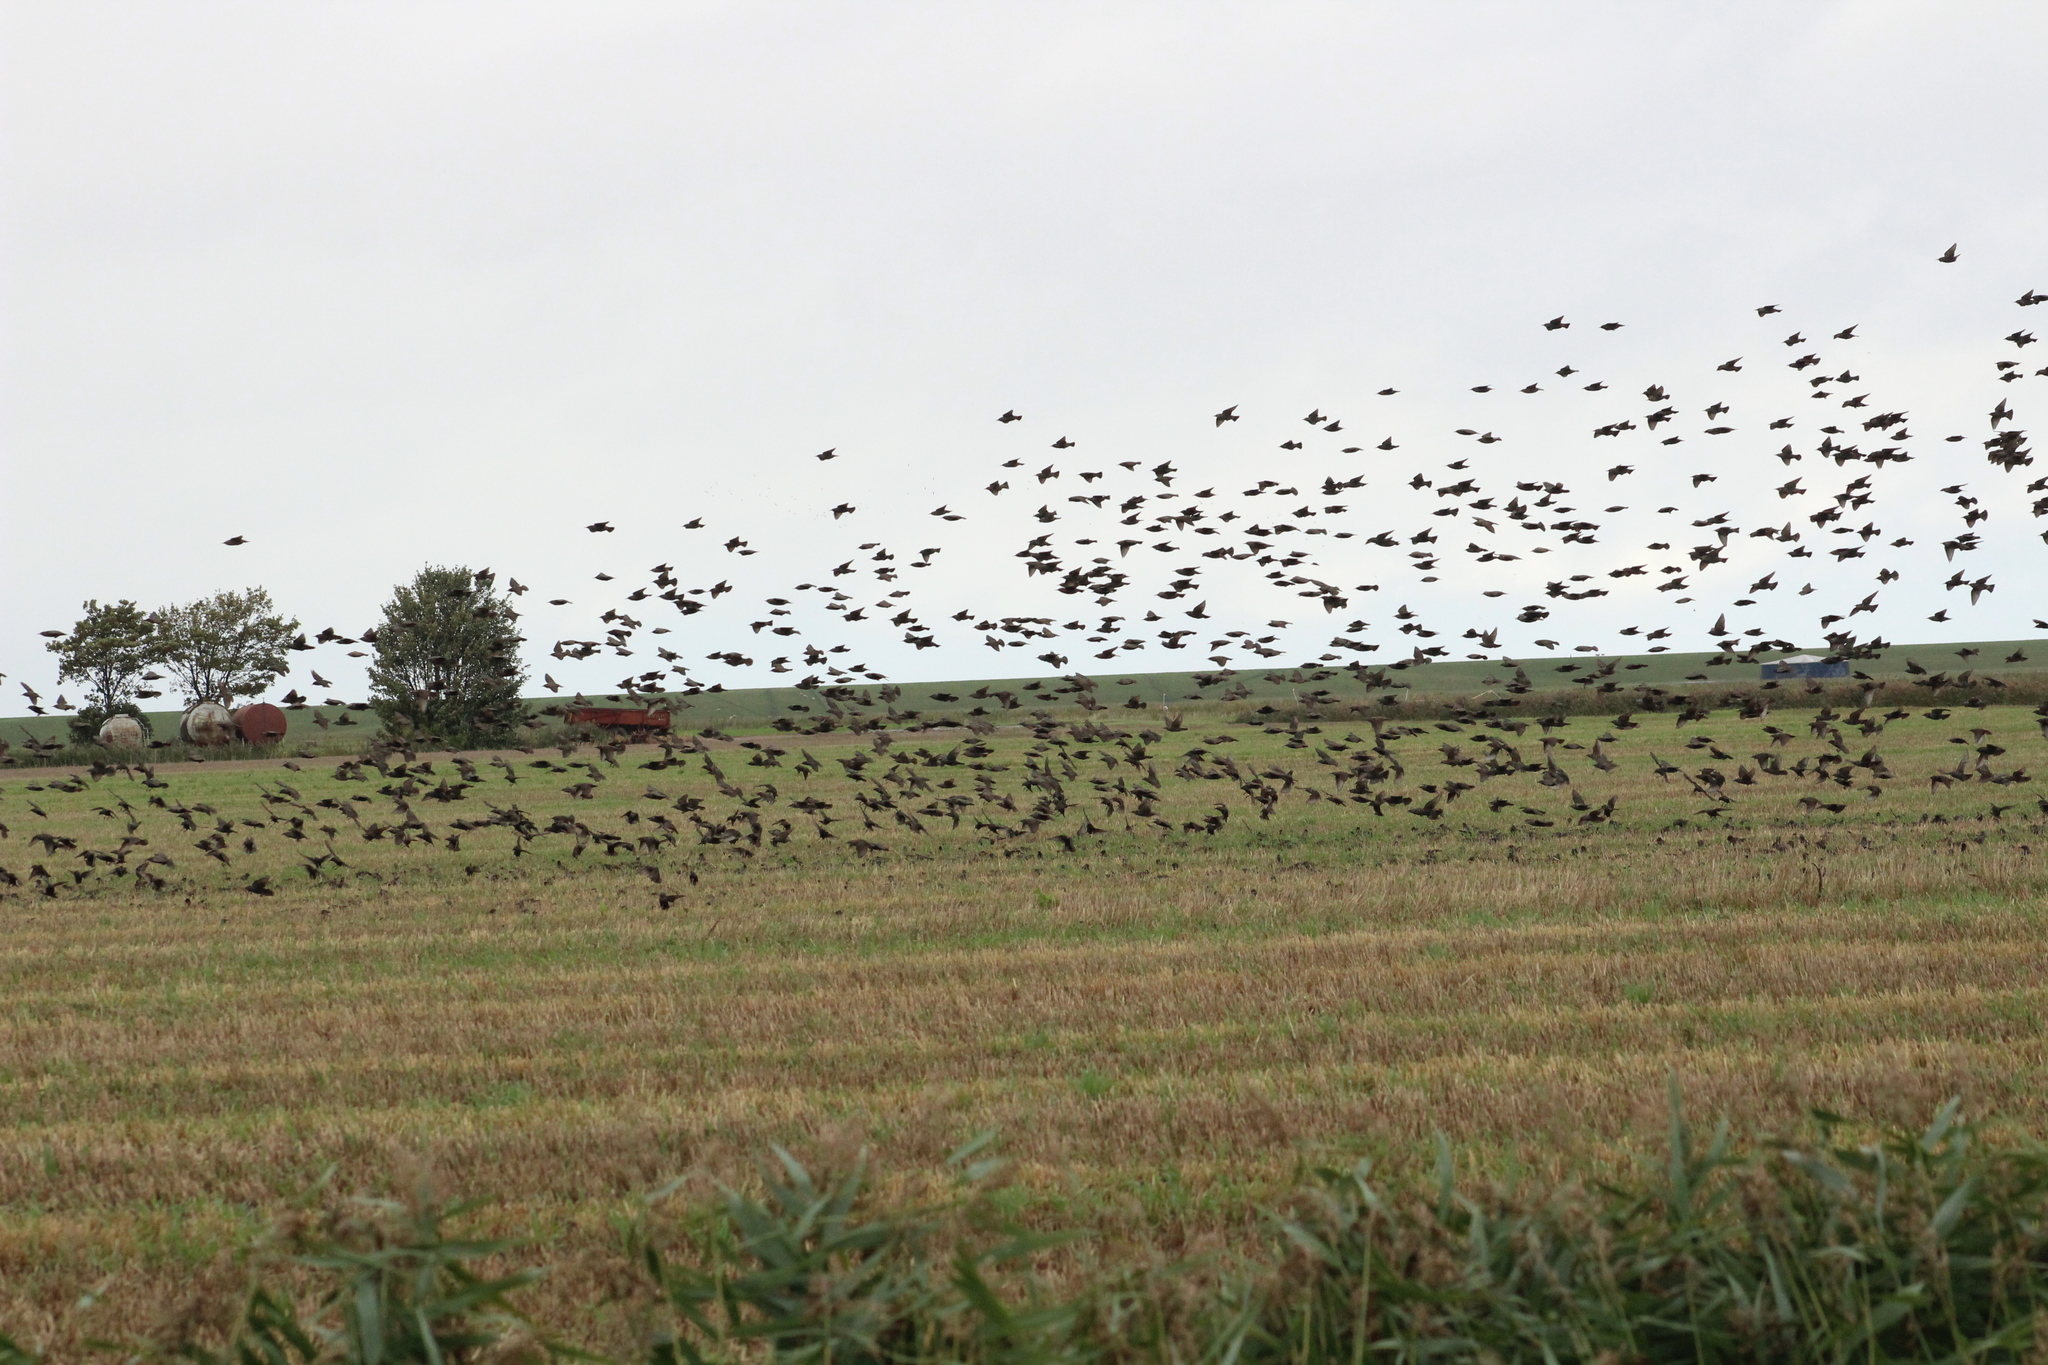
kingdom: Animalia
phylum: Chordata
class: Aves
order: Passeriformes
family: Sturnidae
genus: Sturnus
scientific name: Sturnus vulgaris
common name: Common starling
